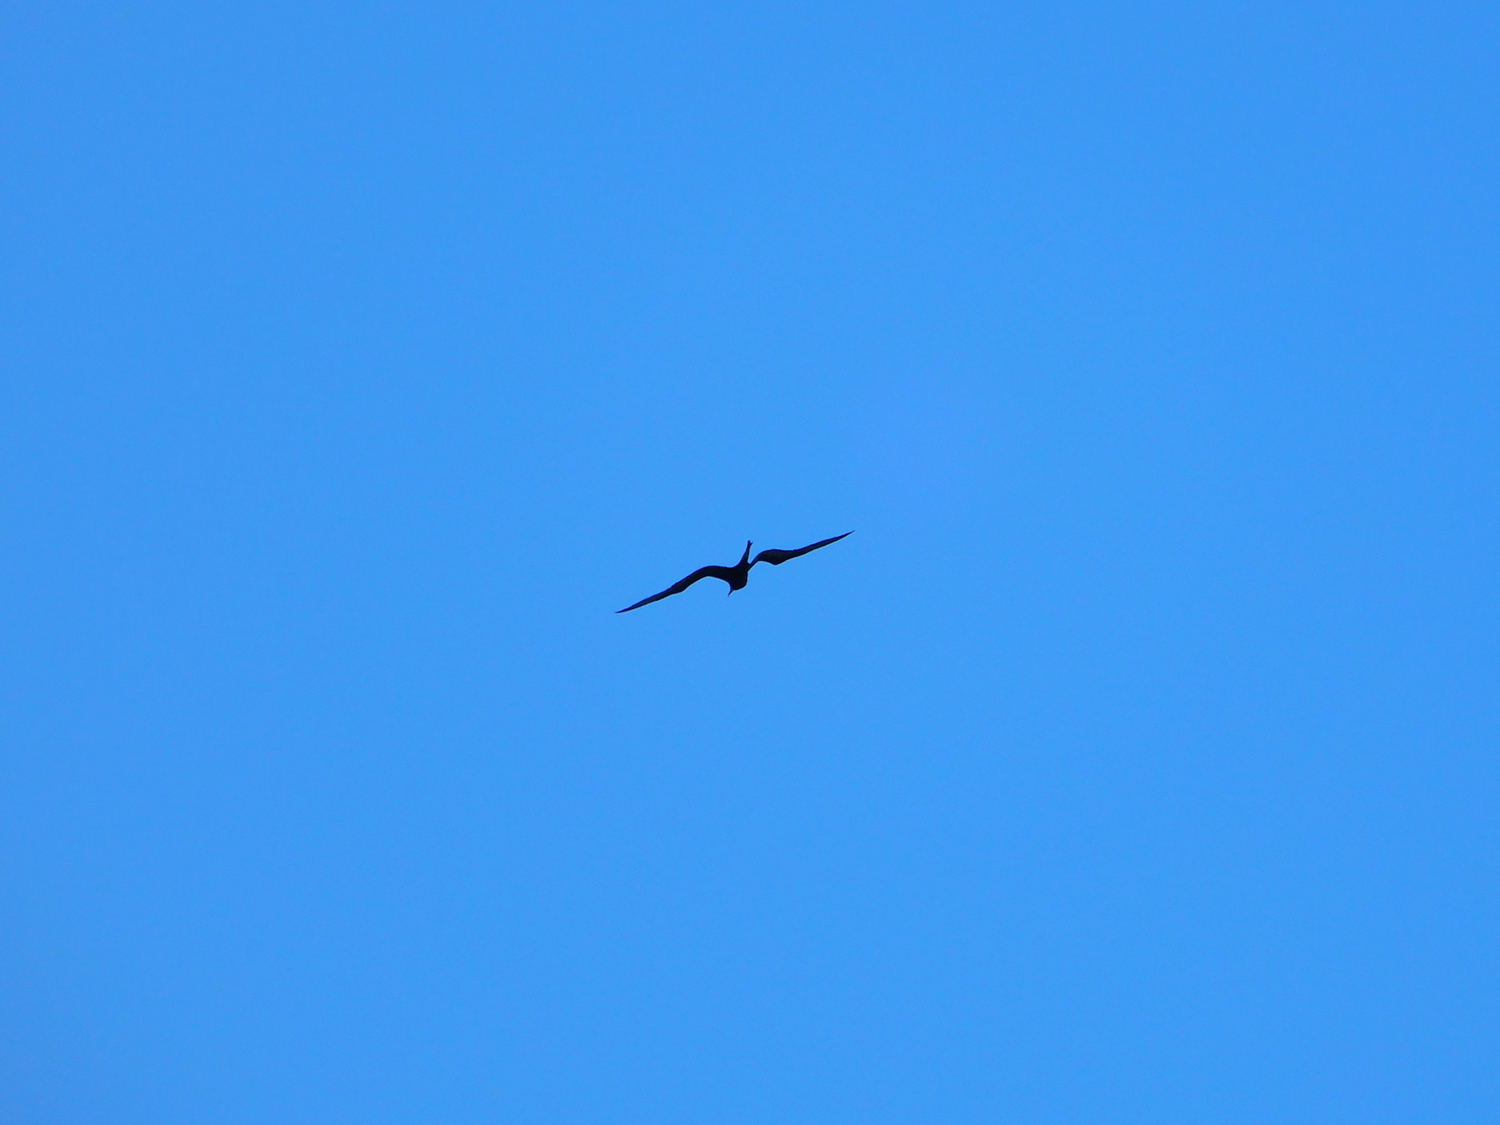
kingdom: Animalia
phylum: Chordata
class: Aves
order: Suliformes
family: Fregatidae
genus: Fregata
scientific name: Fregata magnificens
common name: Magnificent frigatebird
